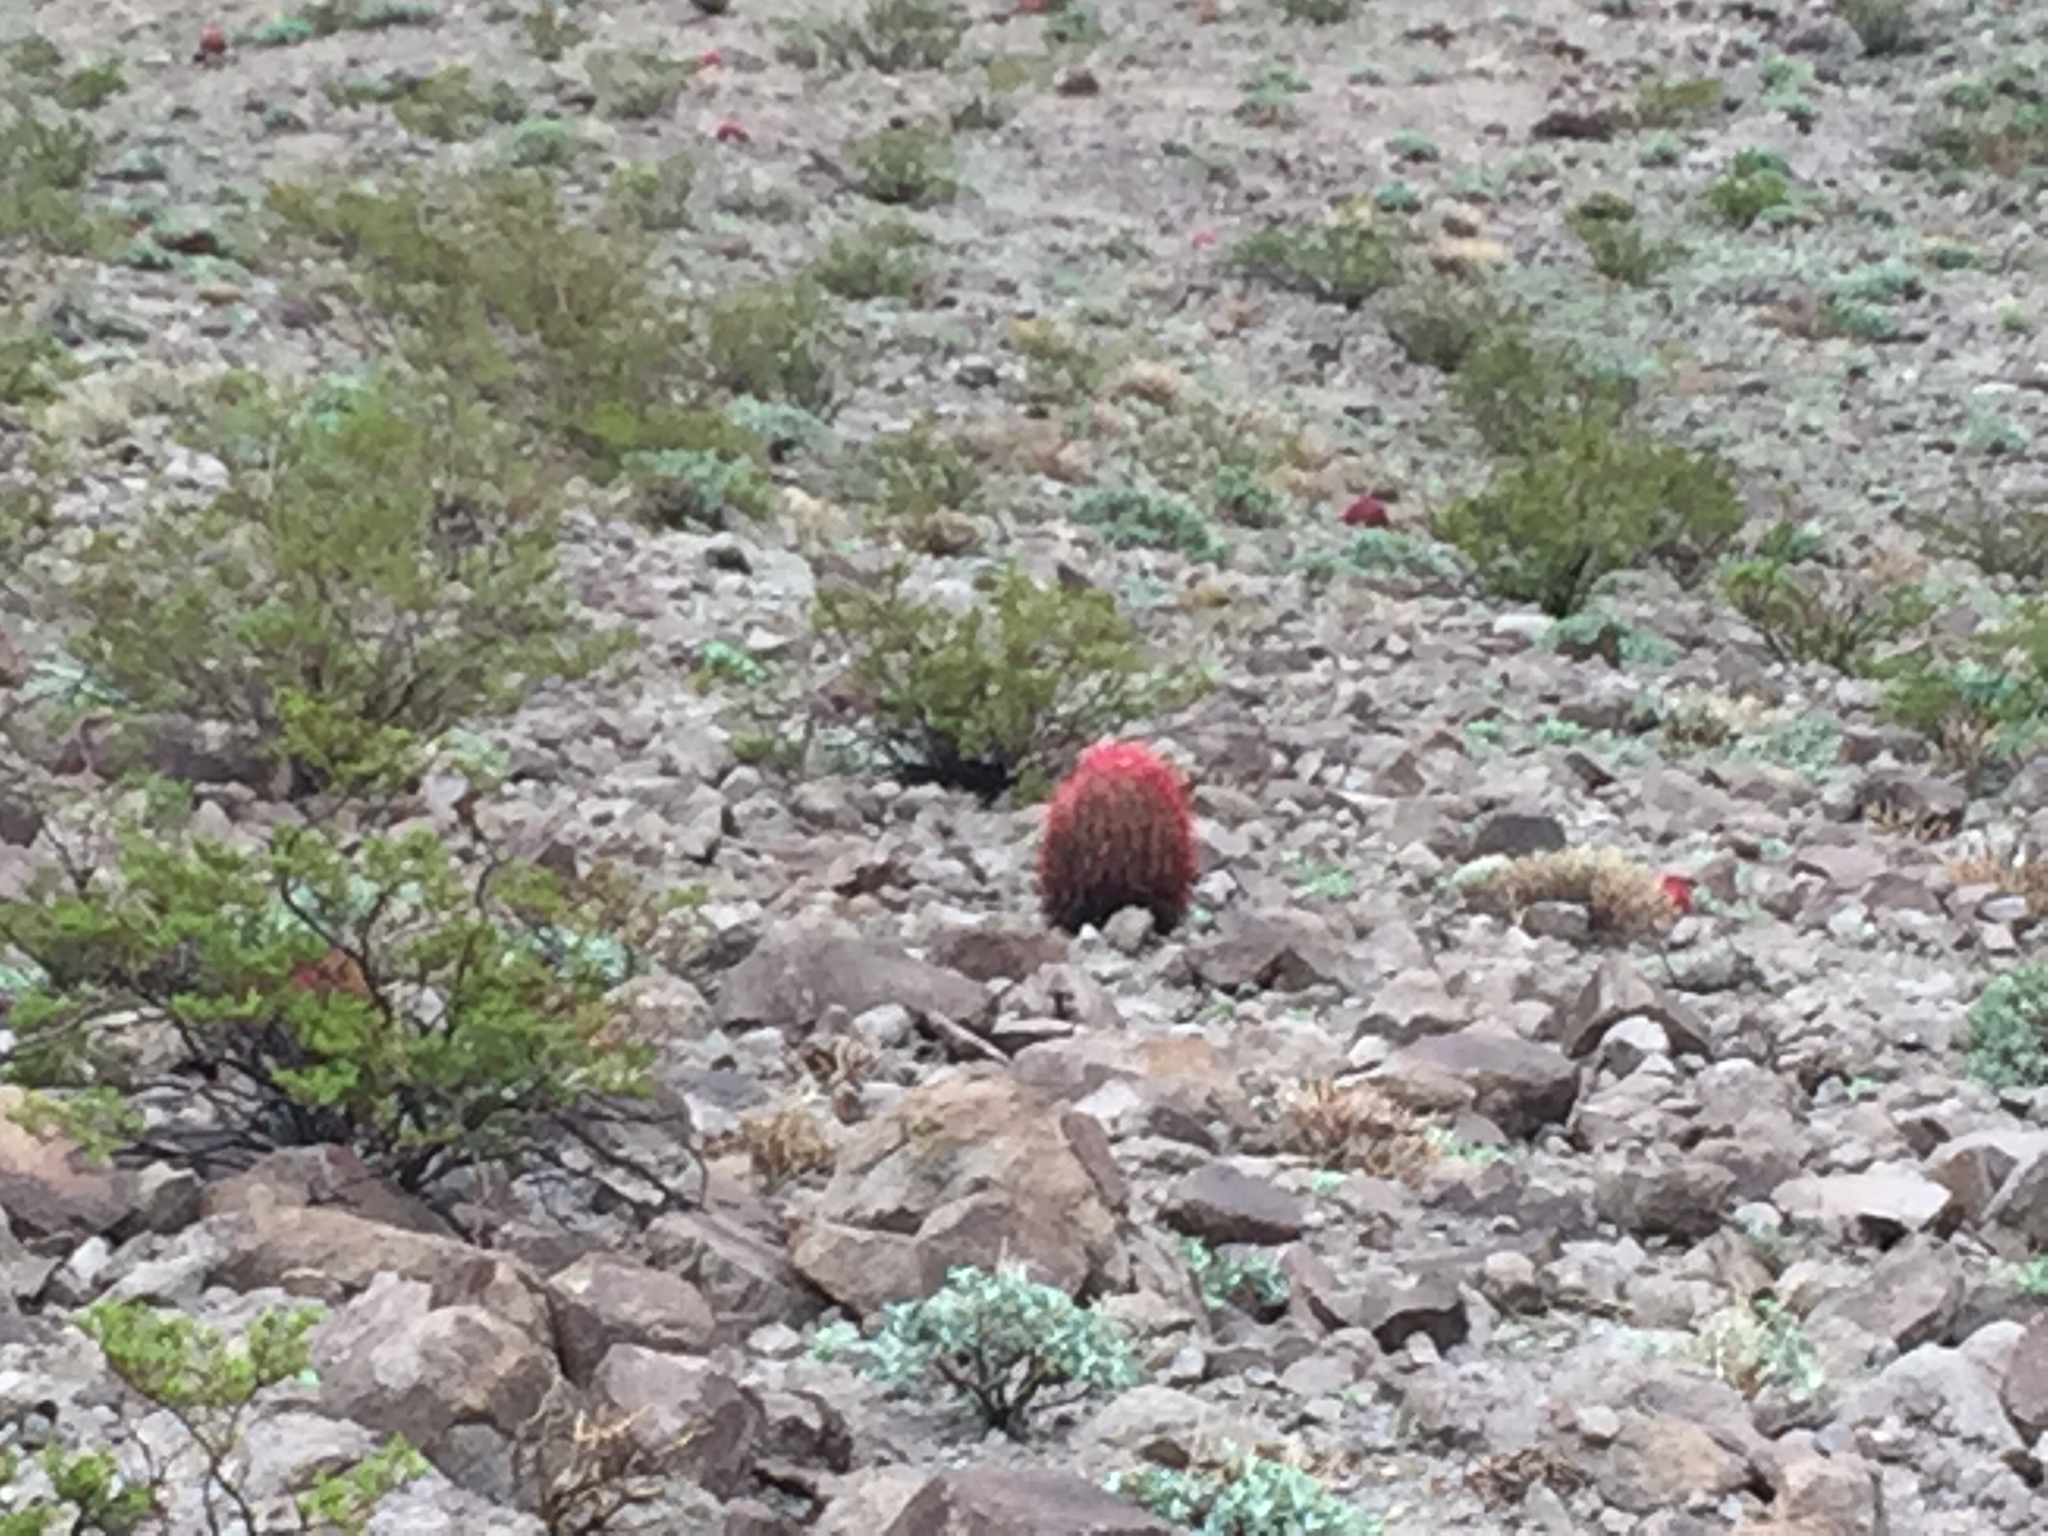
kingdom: Plantae
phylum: Tracheophyta
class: Magnoliopsida
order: Caryophyllales
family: Cactaceae
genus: Ferocactus
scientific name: Ferocactus cylindraceus
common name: California barrel cactus
